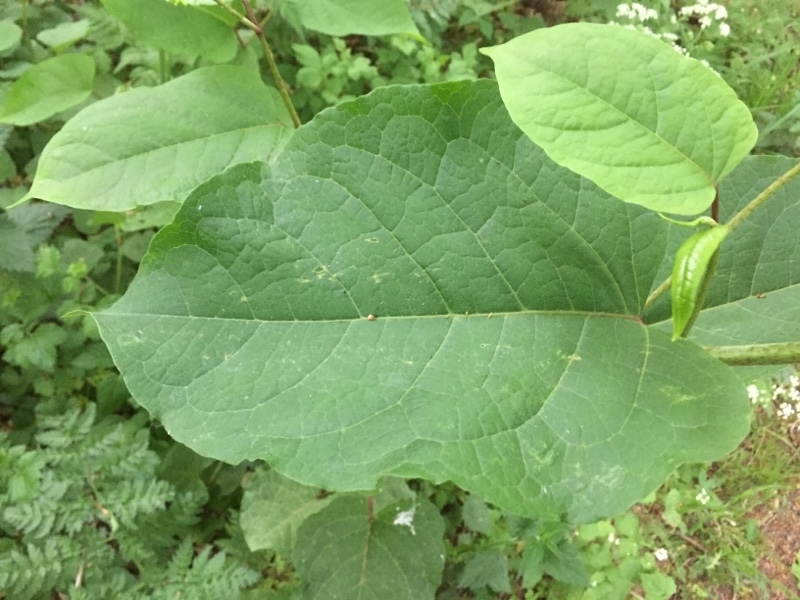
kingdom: Plantae
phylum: Tracheophyta
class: Magnoliopsida
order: Caryophyllales
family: Polygonaceae
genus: Reynoutria
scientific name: Reynoutria sachalinensis
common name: Giant knotweed
